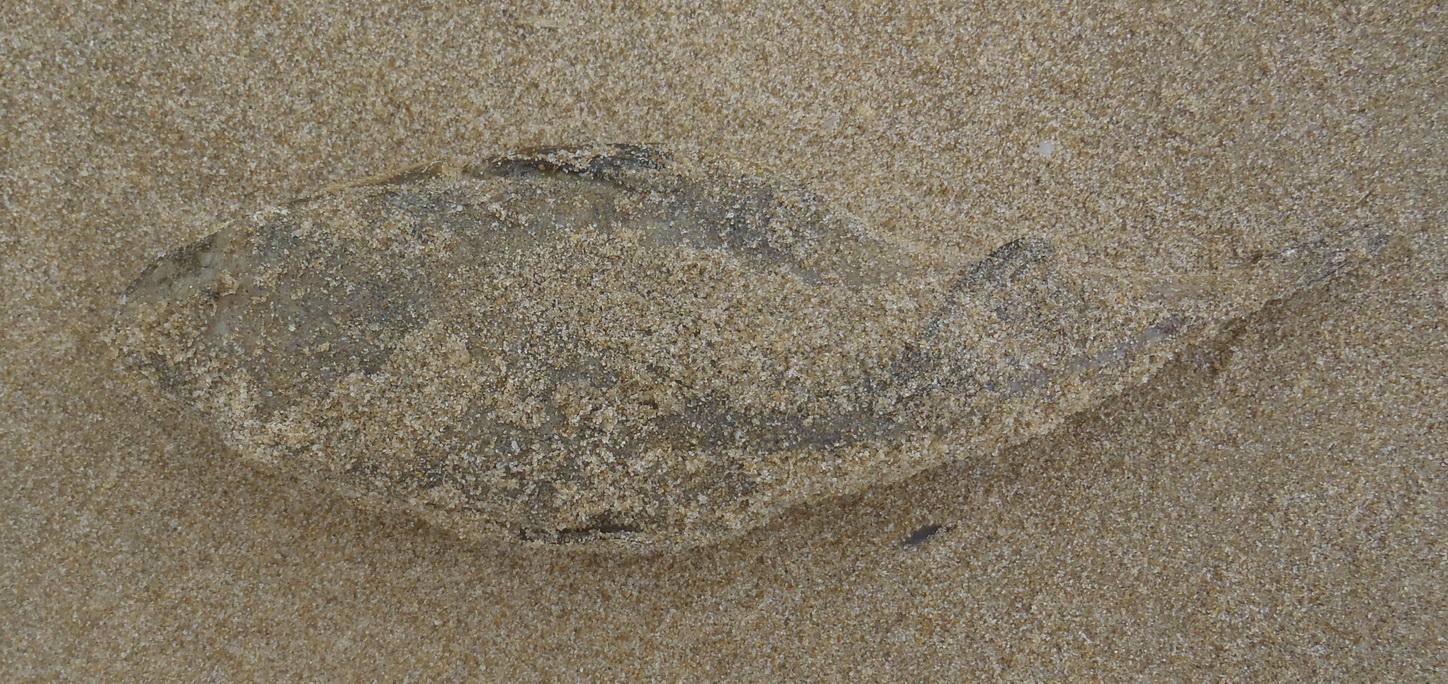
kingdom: Animalia
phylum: Chordata
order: Tetraodontiformes
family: Tetraodontidae
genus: Amblyrhynchote
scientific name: Amblyrhynchote honckenii
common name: Evileye blaasop
